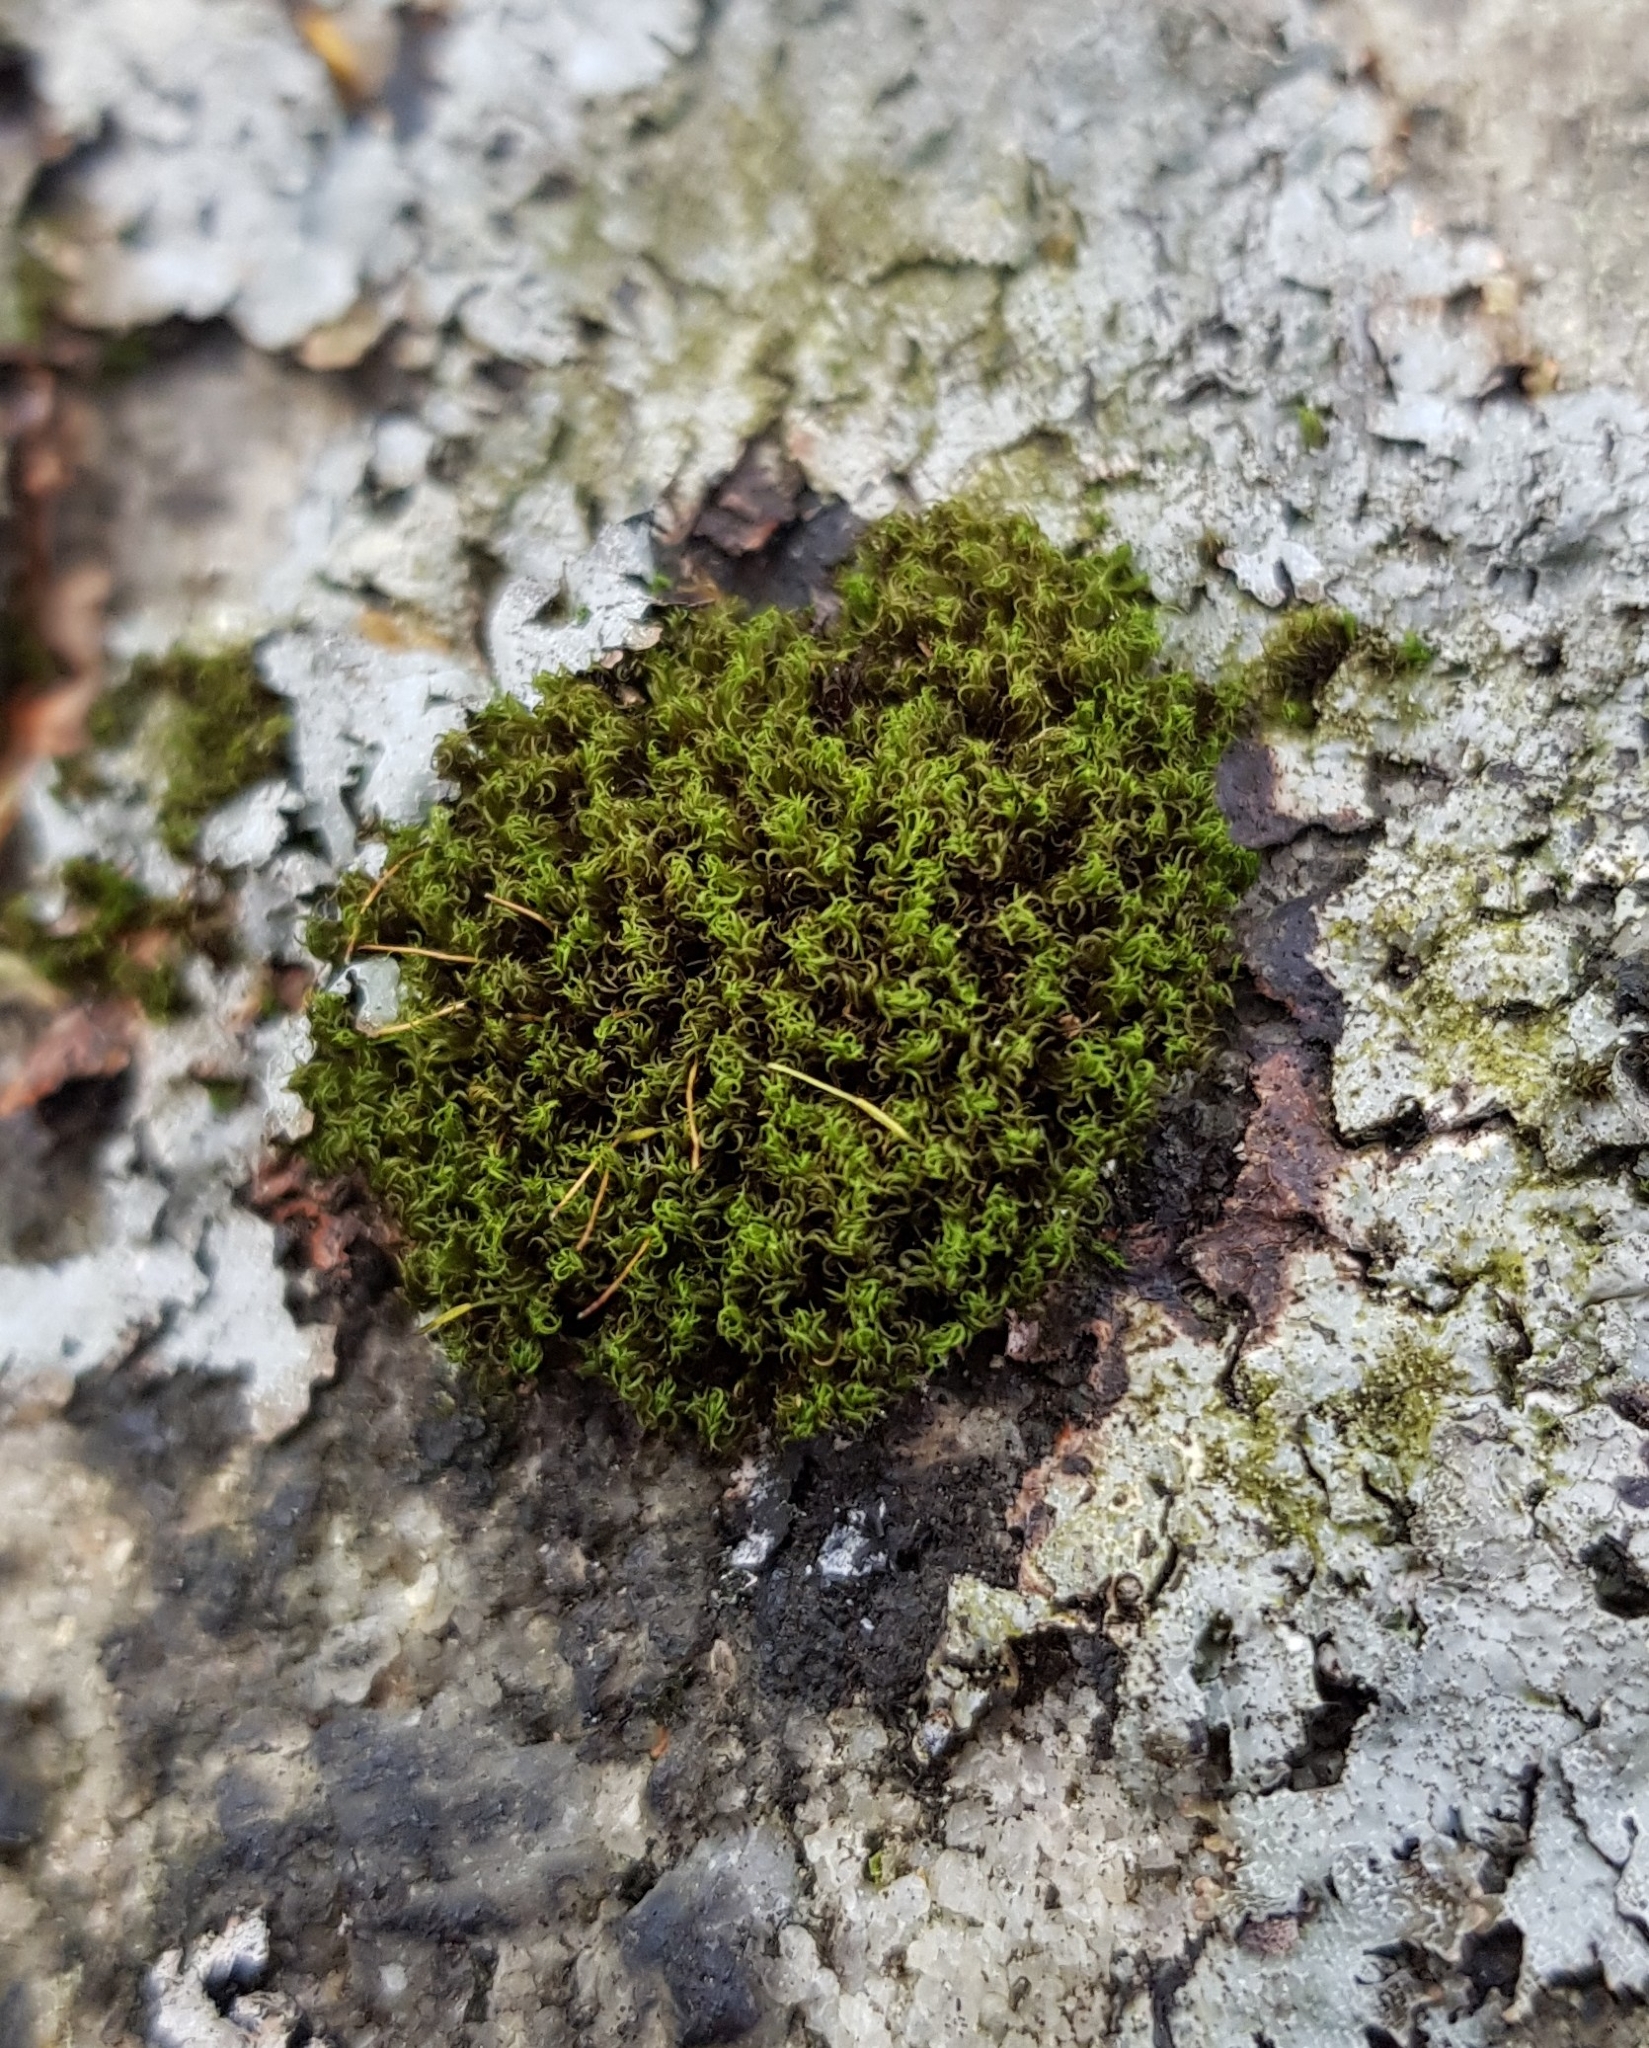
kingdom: Plantae
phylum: Bryophyta
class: Bryopsida
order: Dicranales
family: Rhabdoweisiaceae
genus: Dicranoweisia
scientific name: Dicranoweisia cirrata
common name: Common pincushion
